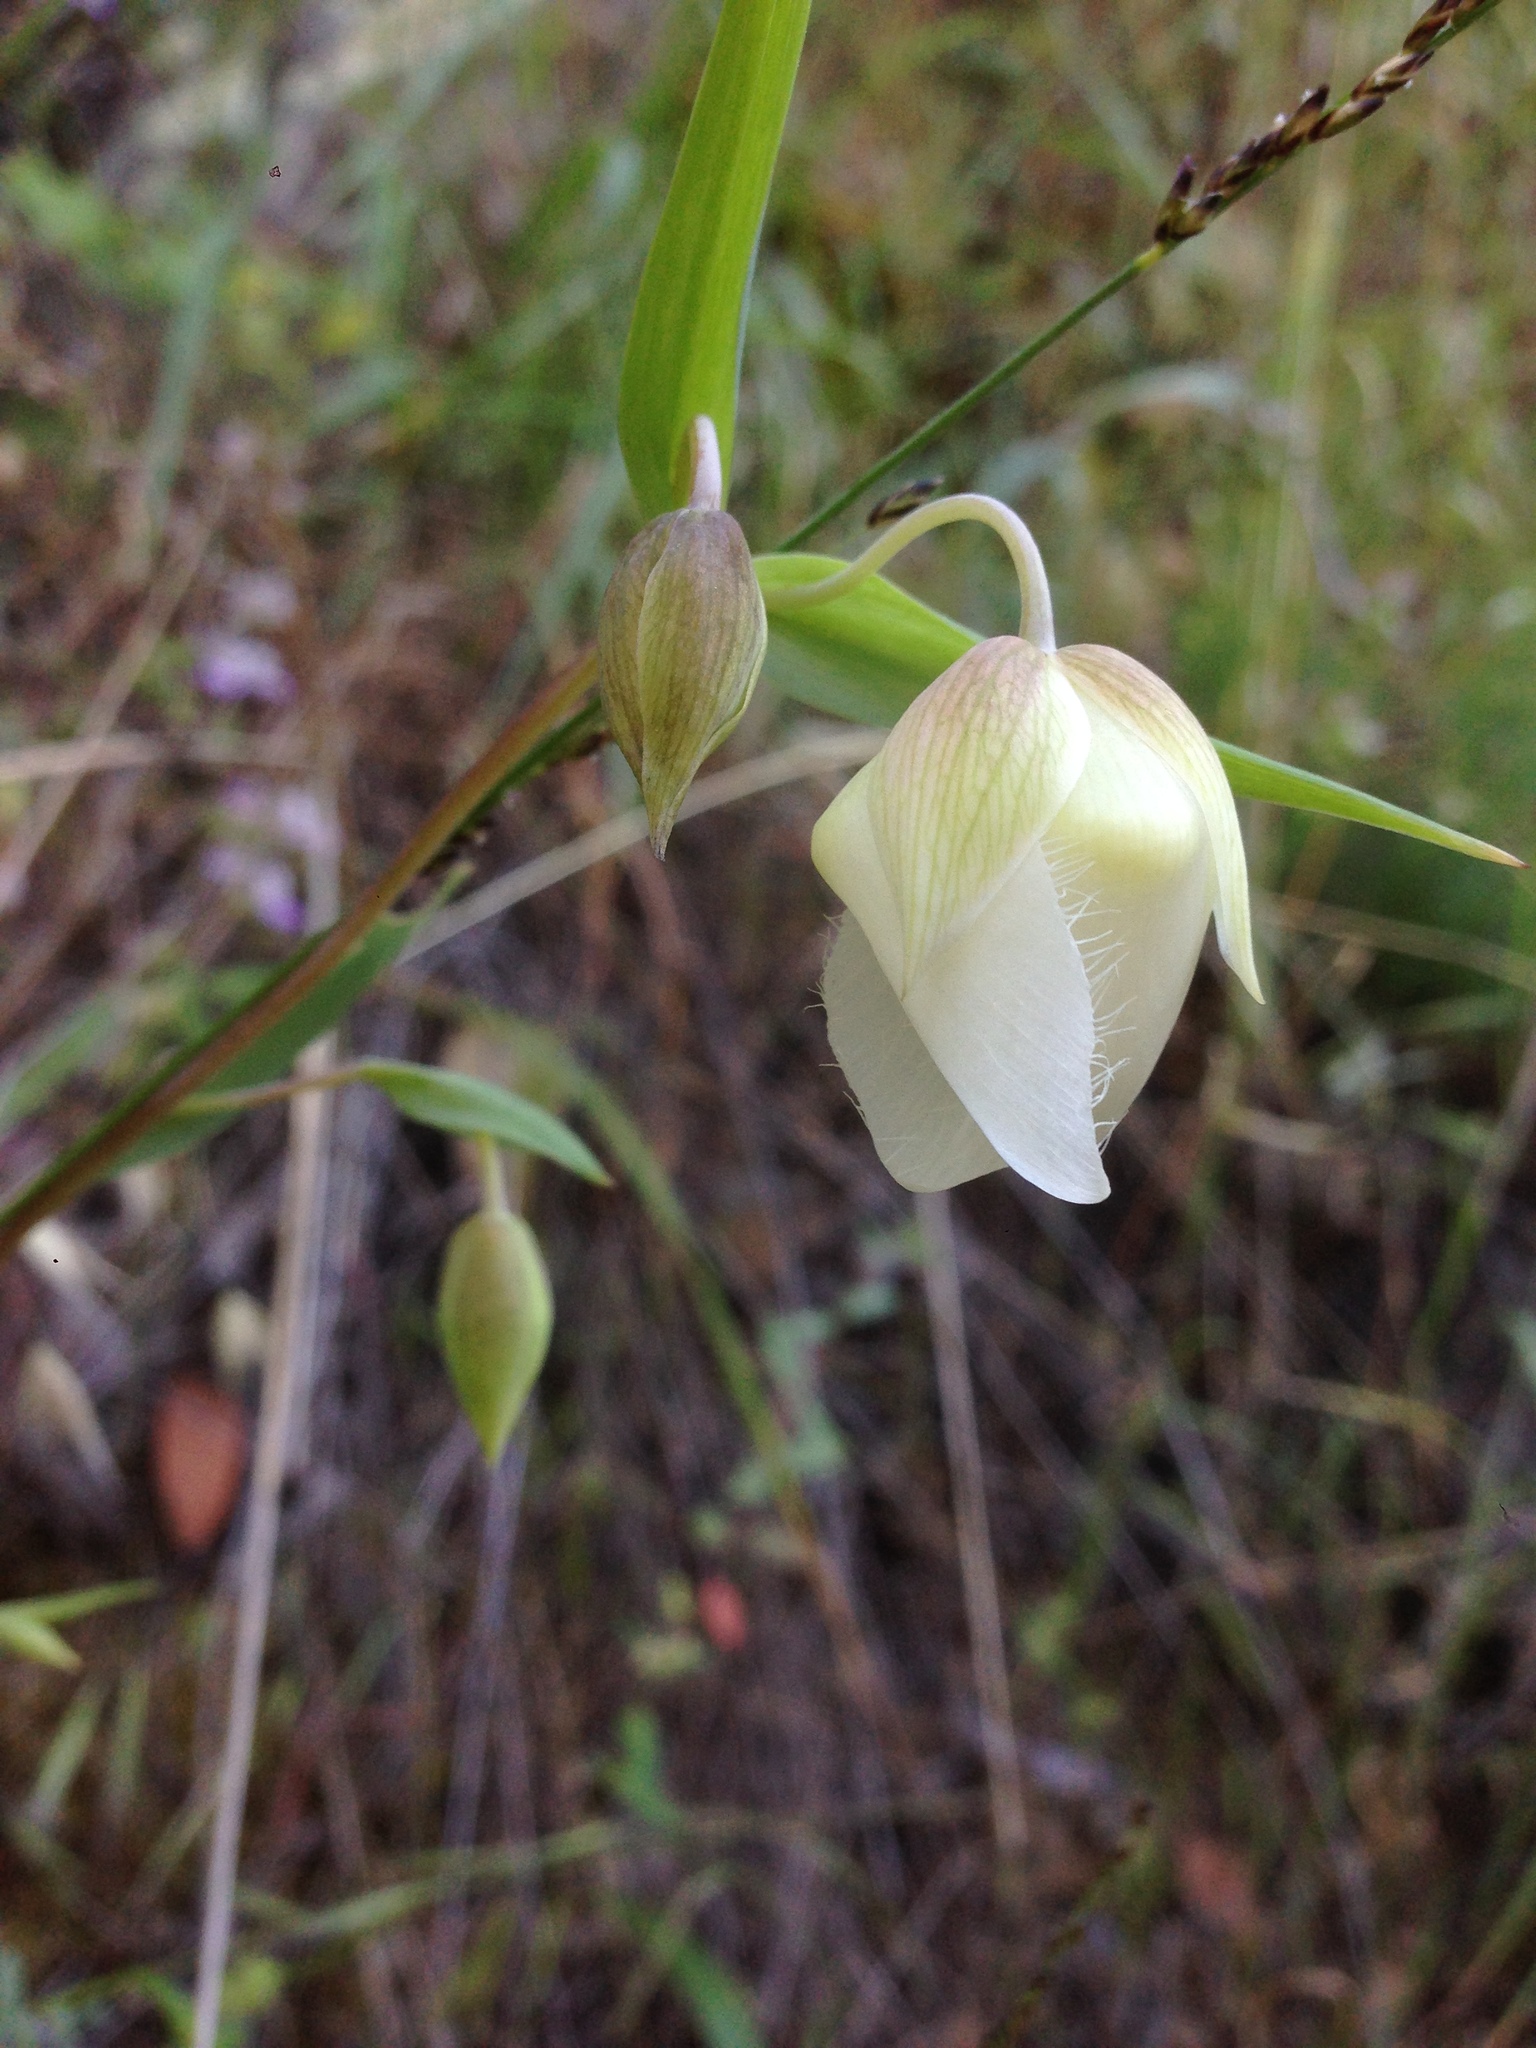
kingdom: Plantae
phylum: Tracheophyta
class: Liliopsida
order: Liliales
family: Liliaceae
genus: Calochortus
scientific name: Calochortus albus
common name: Fairy-lantern
